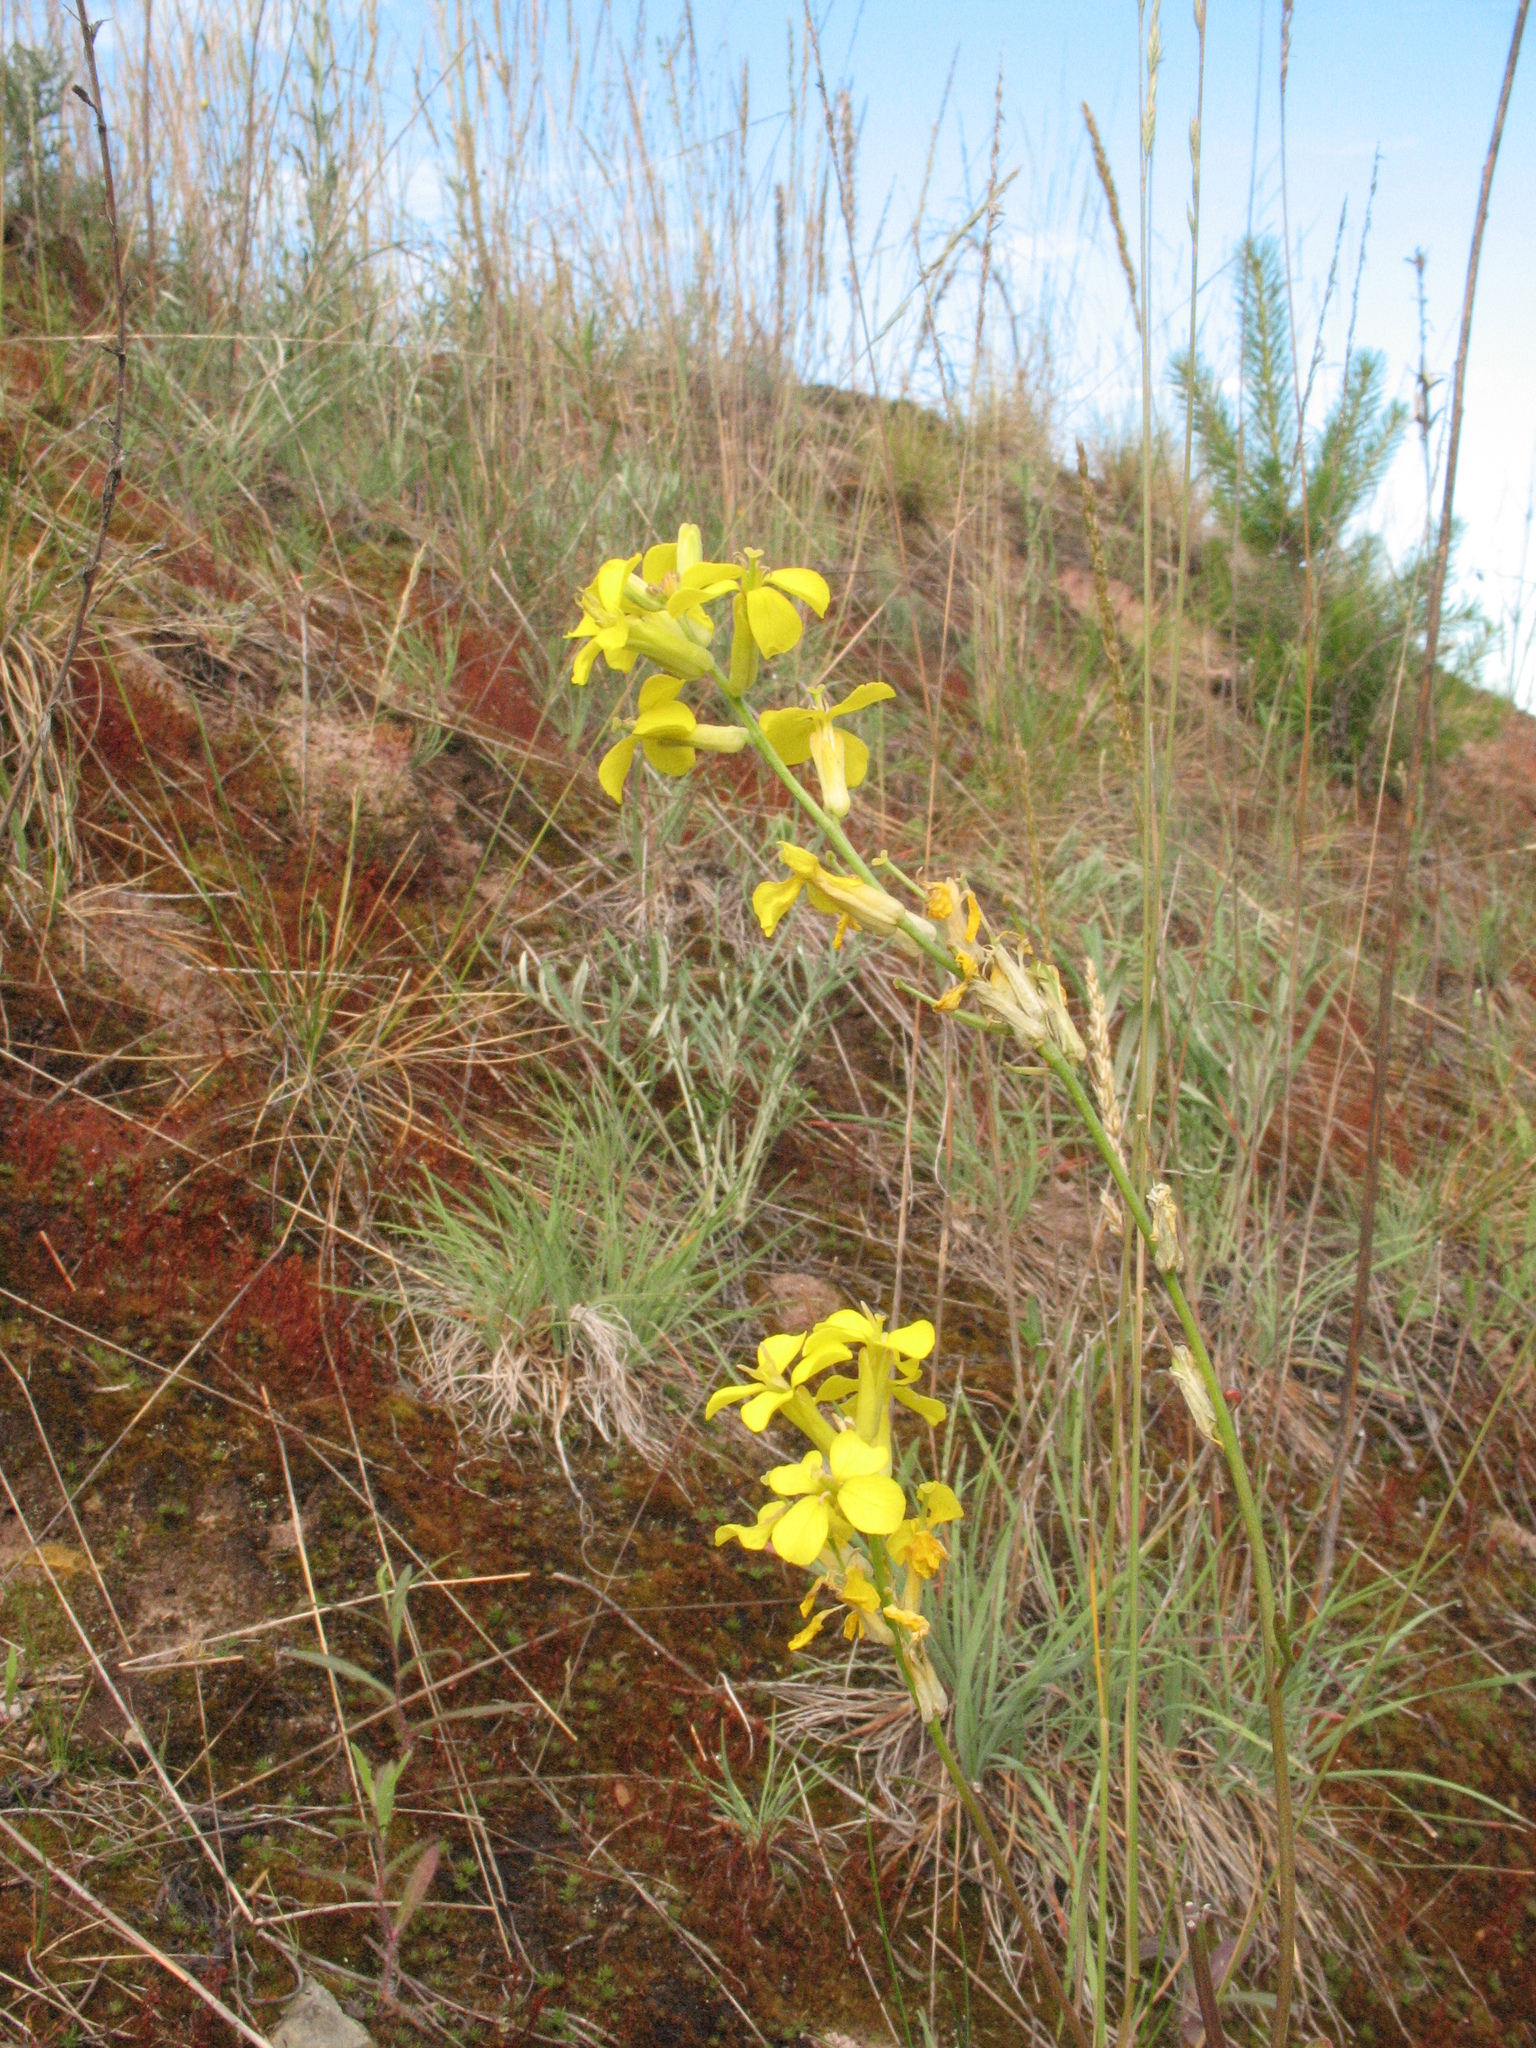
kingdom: Plantae
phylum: Tracheophyta
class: Magnoliopsida
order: Brassicales
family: Brassicaceae
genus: Erysimum
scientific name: Erysimum quadrangulum
